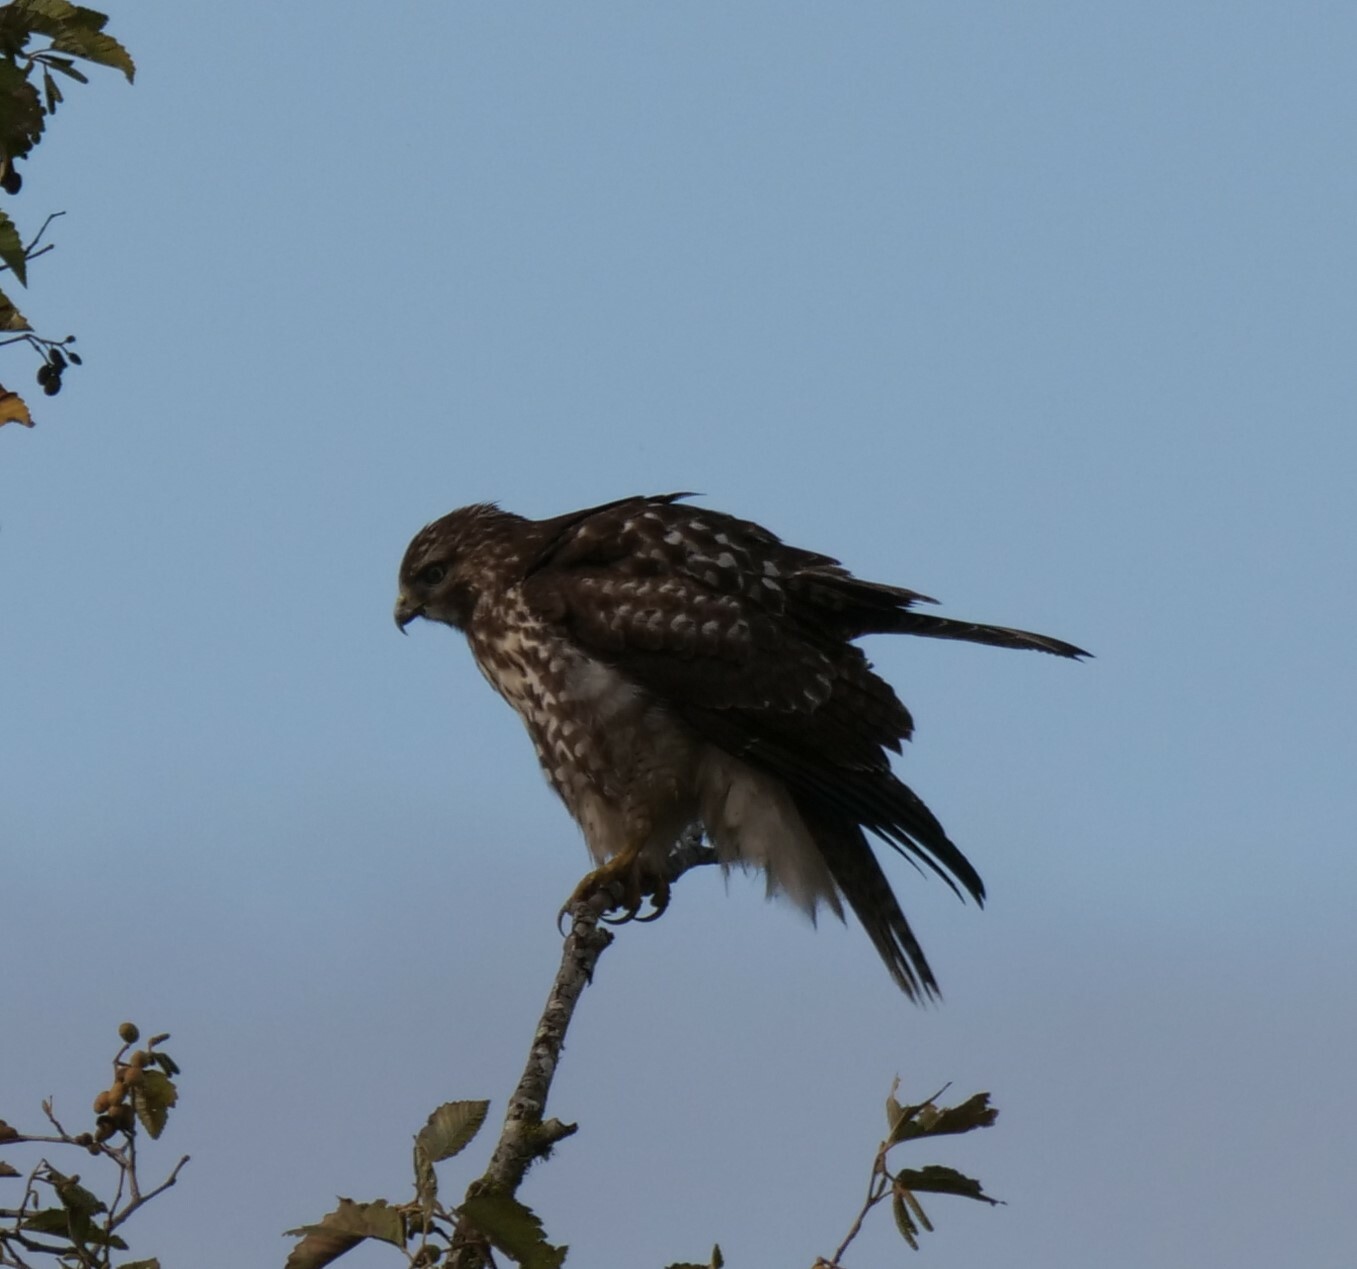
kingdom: Animalia
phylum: Chordata
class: Aves
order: Accipitriformes
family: Accipitridae
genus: Buteo
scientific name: Buteo jamaicensis
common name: Red-tailed hawk
